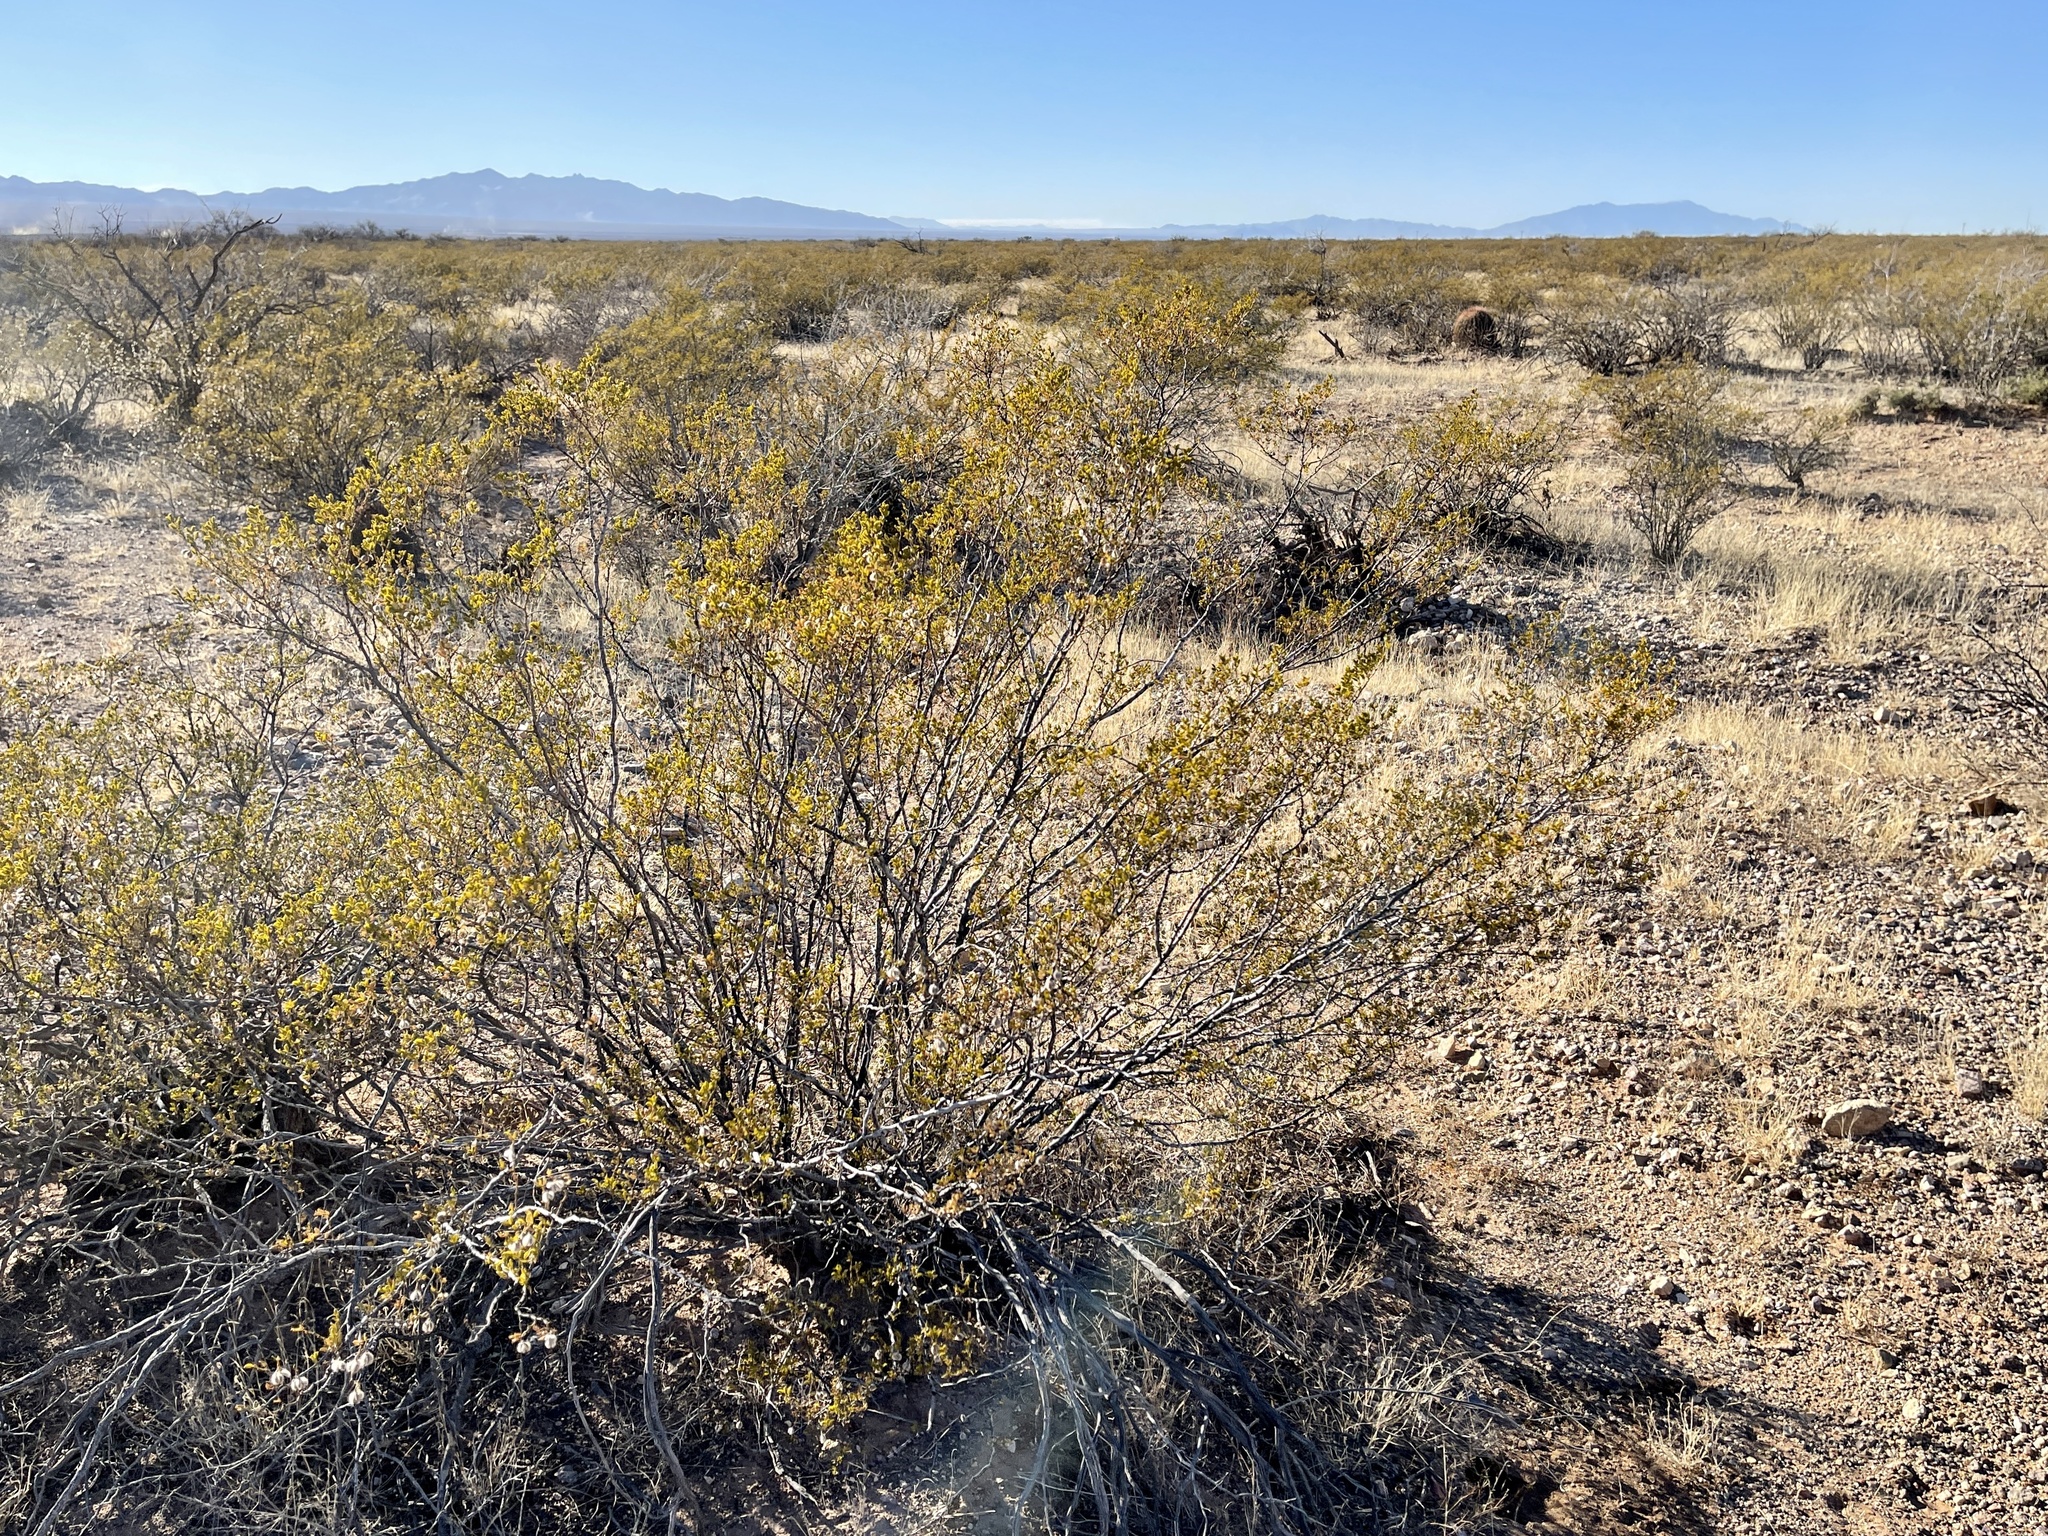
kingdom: Plantae
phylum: Tracheophyta
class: Magnoliopsida
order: Zygophyllales
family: Zygophyllaceae
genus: Larrea
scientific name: Larrea tridentata
